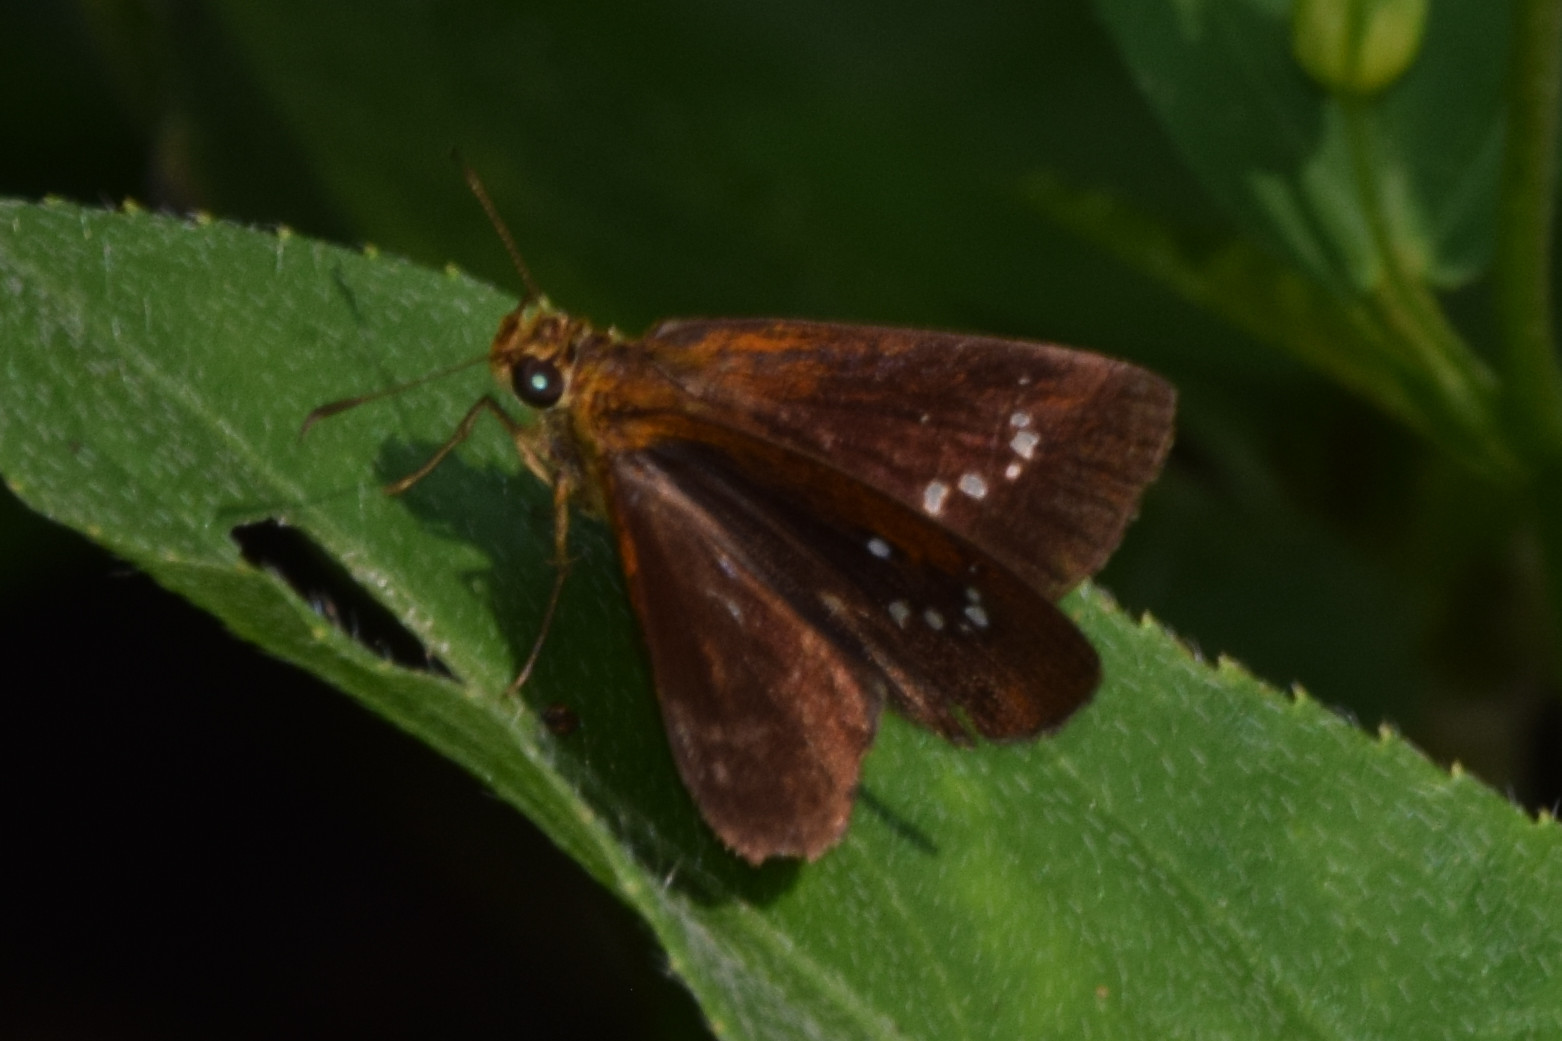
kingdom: Animalia
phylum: Arthropoda
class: Insecta
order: Lepidoptera
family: Hesperiidae
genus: Iambrix
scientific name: Iambrix salsala
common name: Chestnut bob
